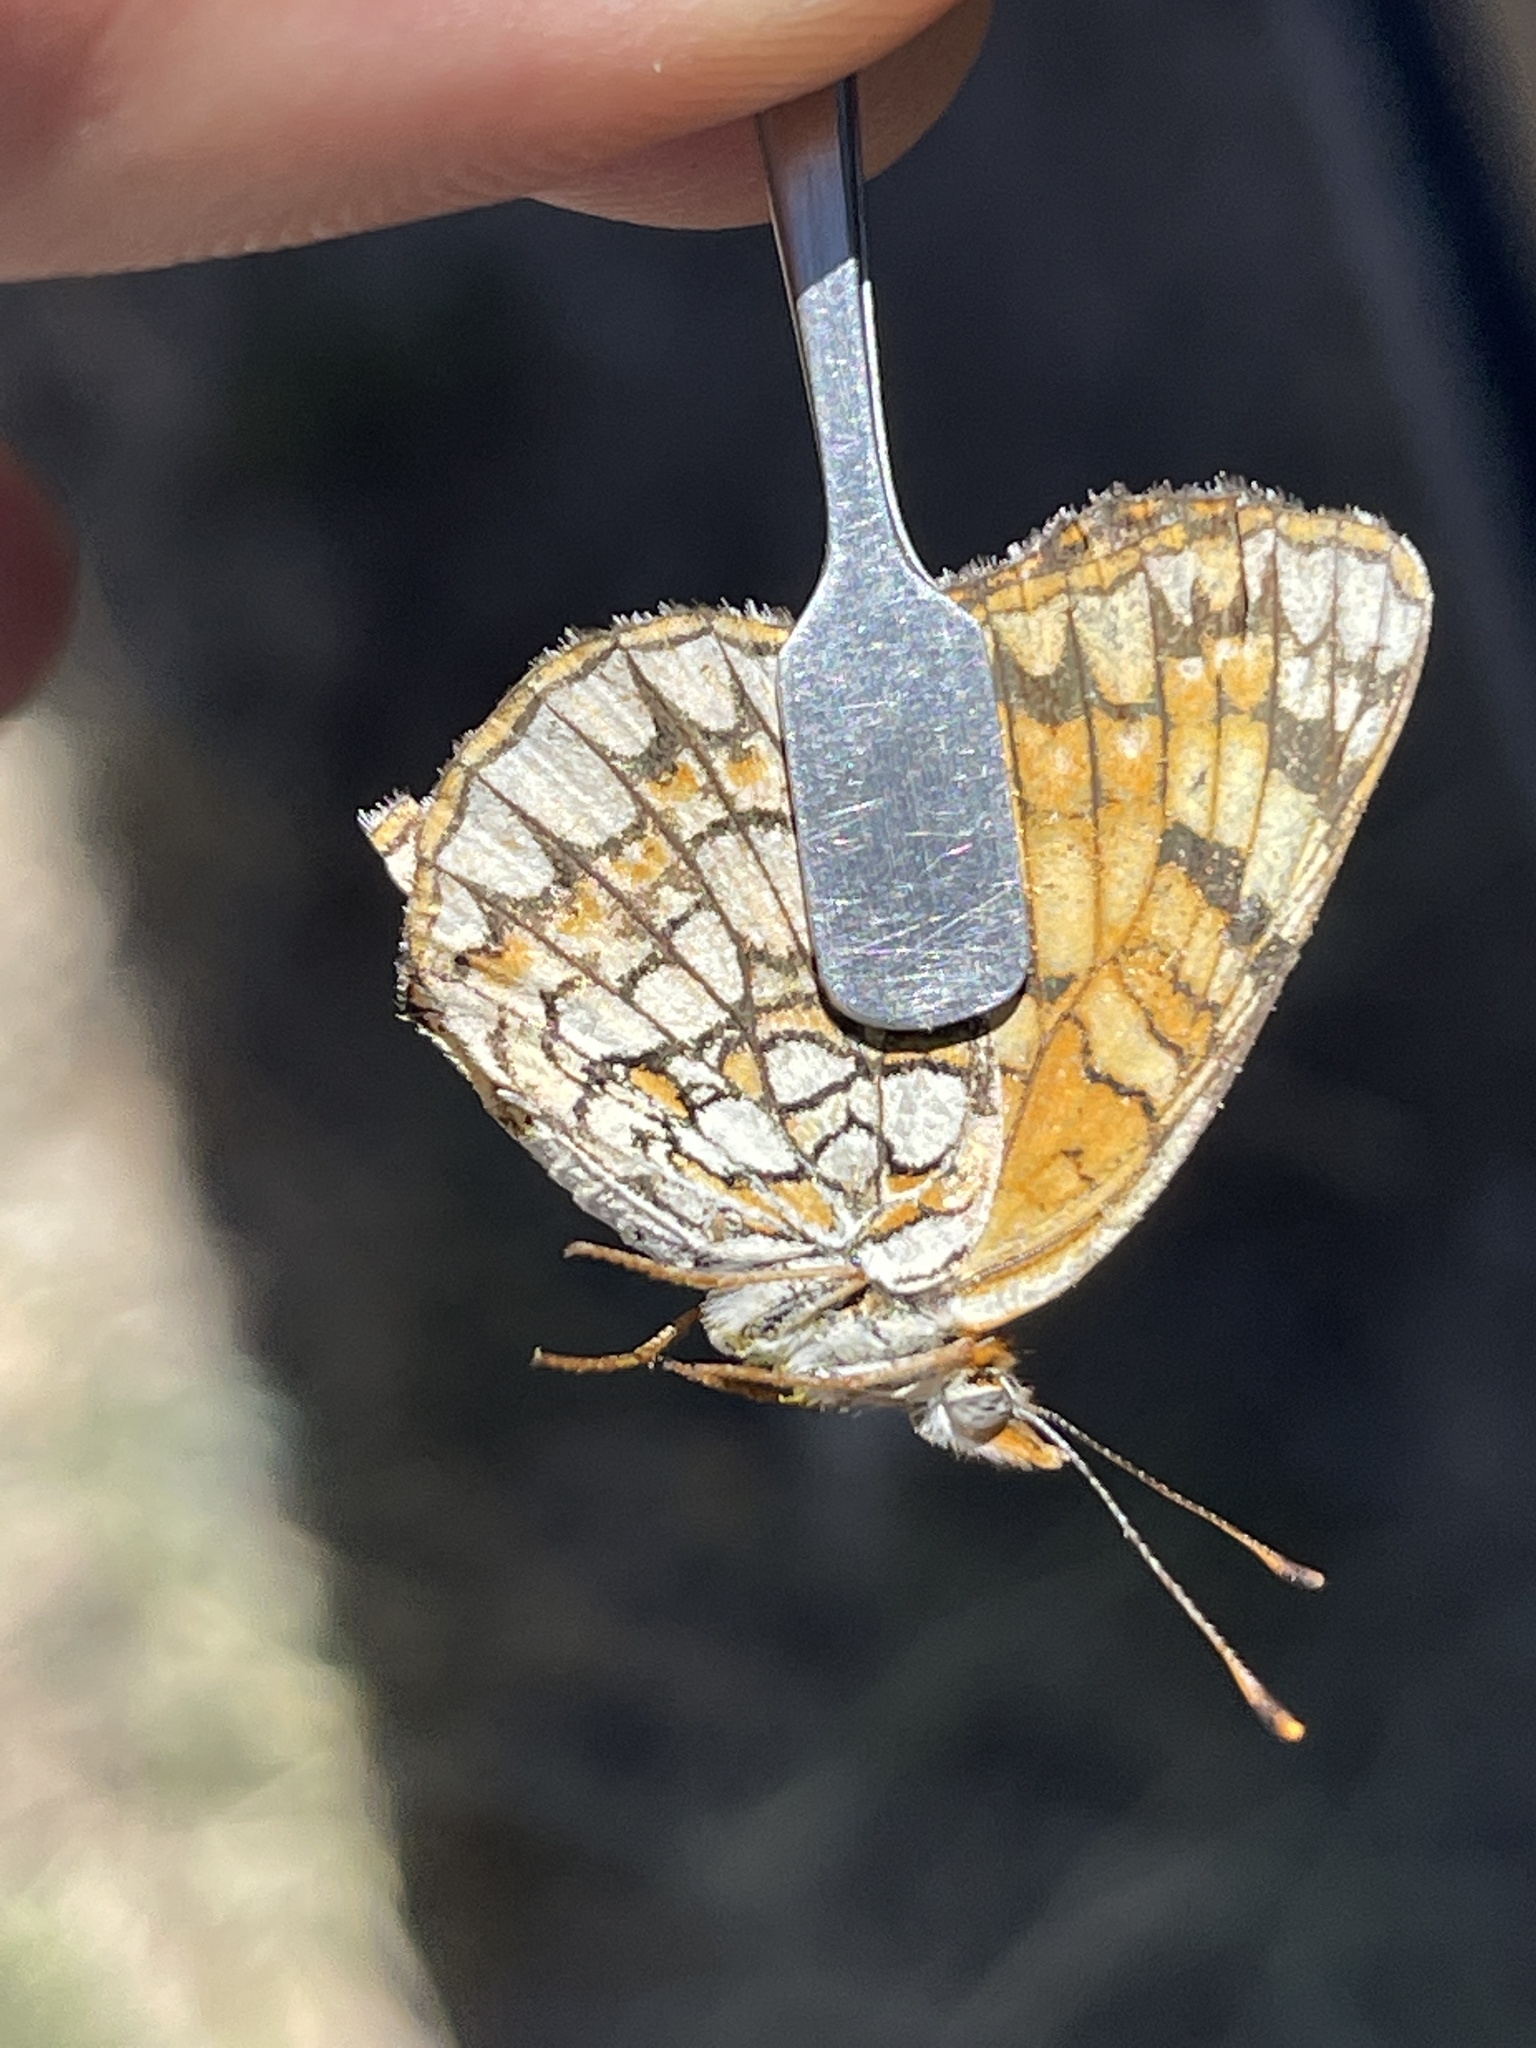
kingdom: Animalia
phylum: Arthropoda
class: Insecta
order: Lepidoptera
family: Nymphalidae
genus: Chlosyne
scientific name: Chlosyne acastus
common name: Sagebrush checkerspot
